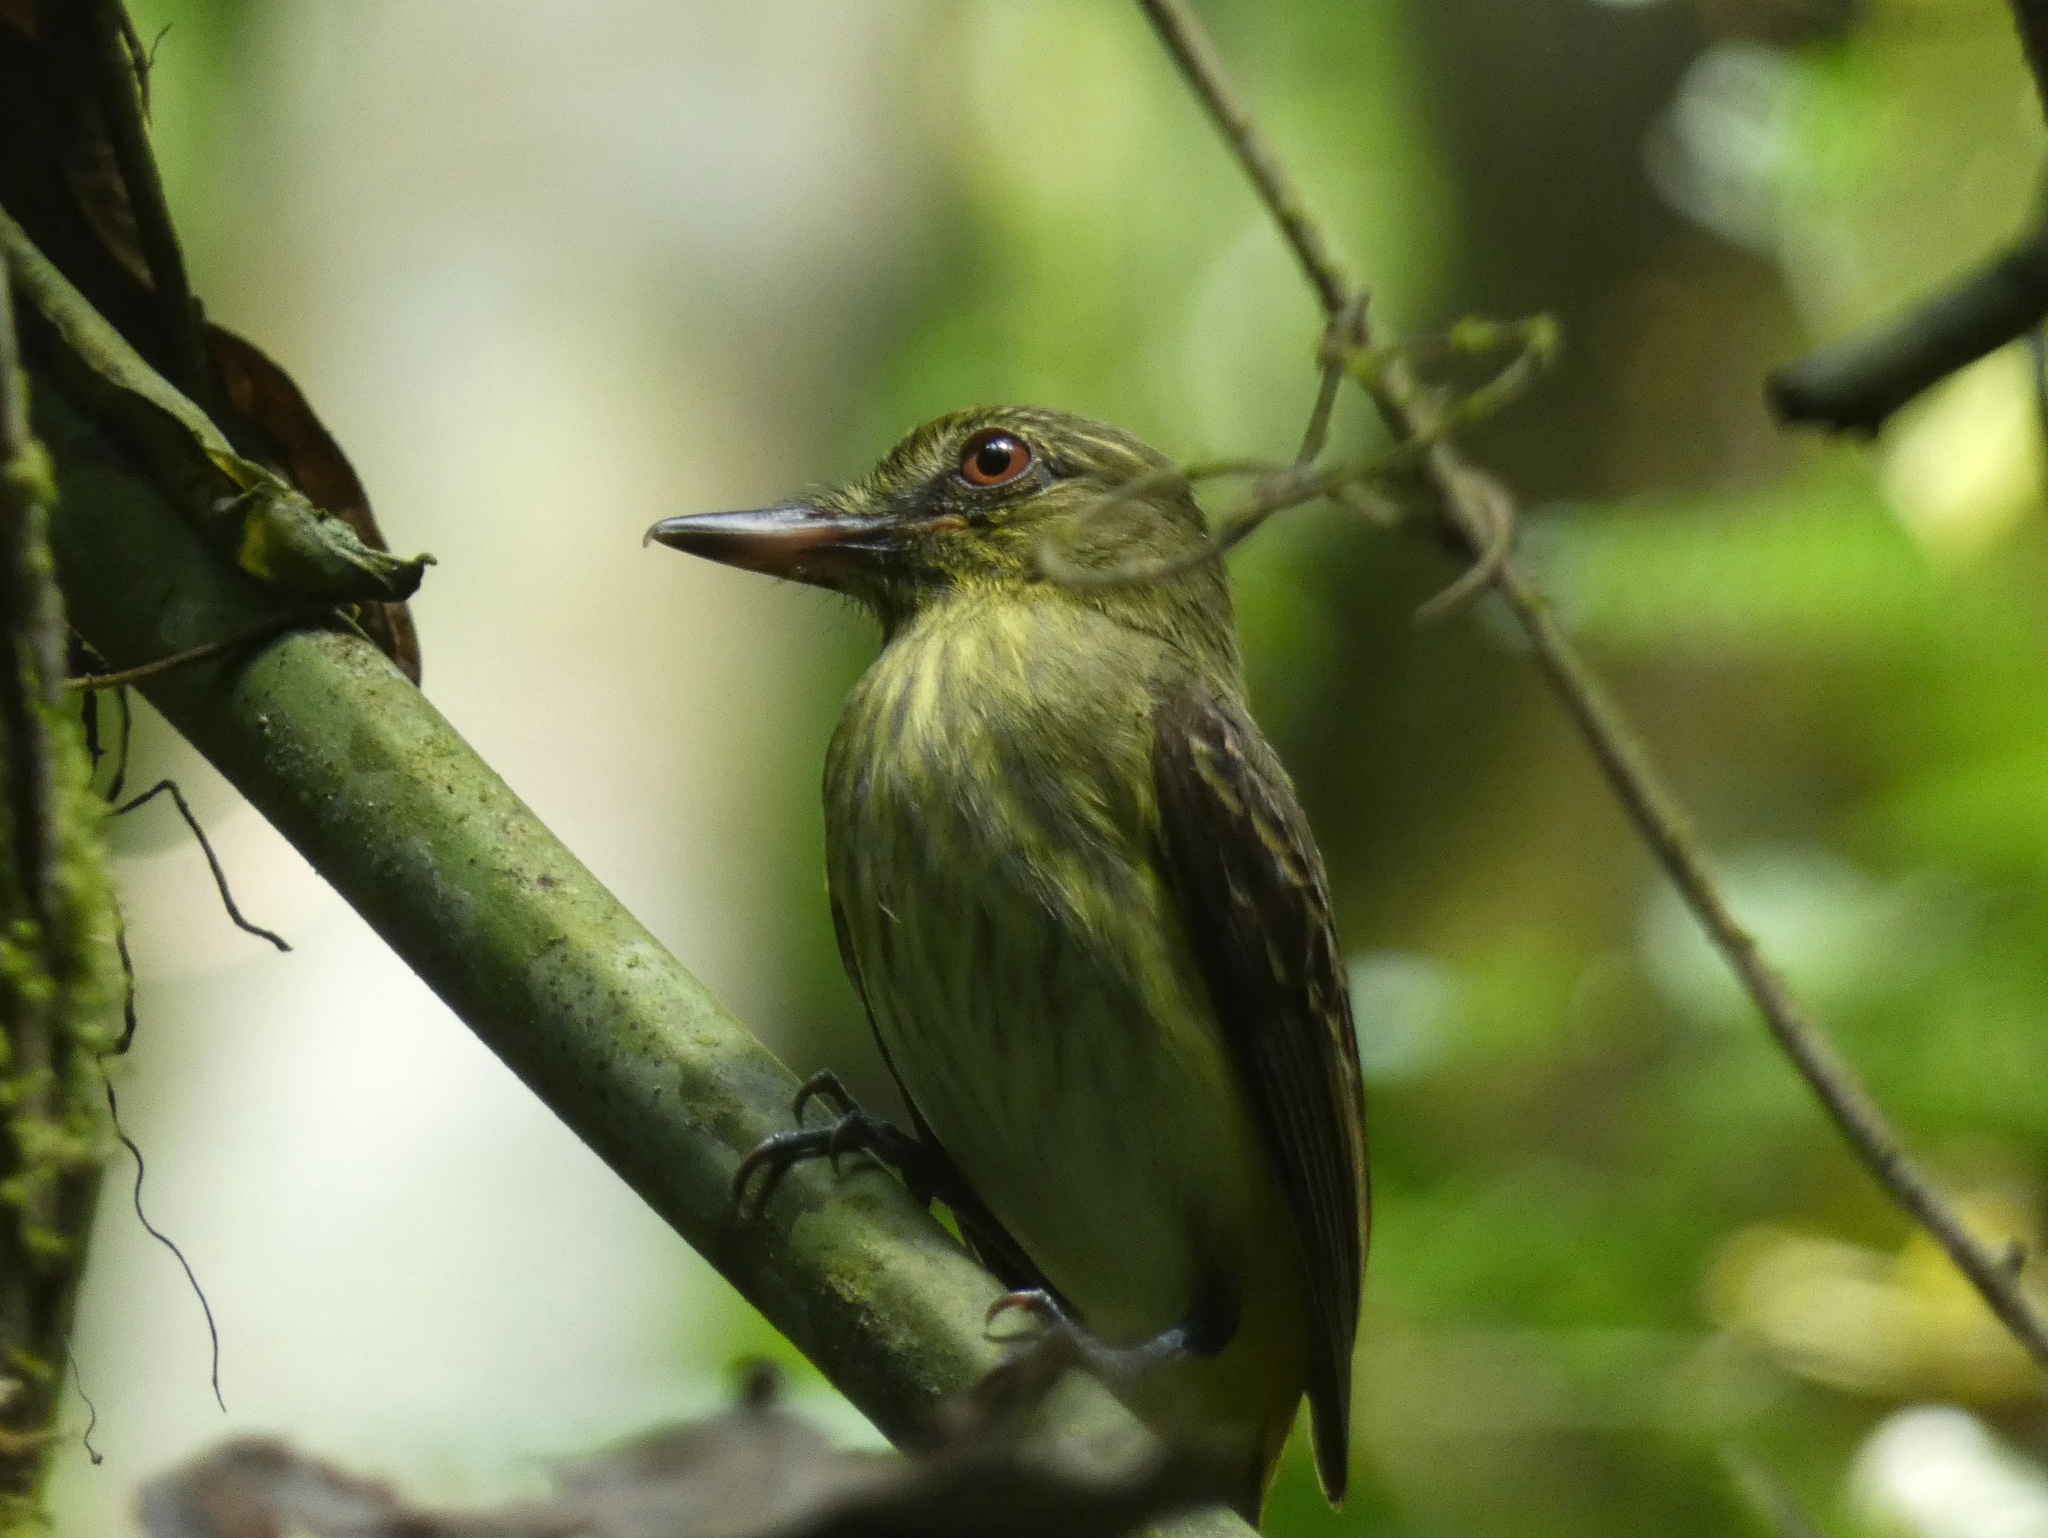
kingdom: Animalia
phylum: Chordata
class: Aves
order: Passeriformes
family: Tyrannidae
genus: Attila
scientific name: Attila spadiceus
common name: Bright-rumped attila
